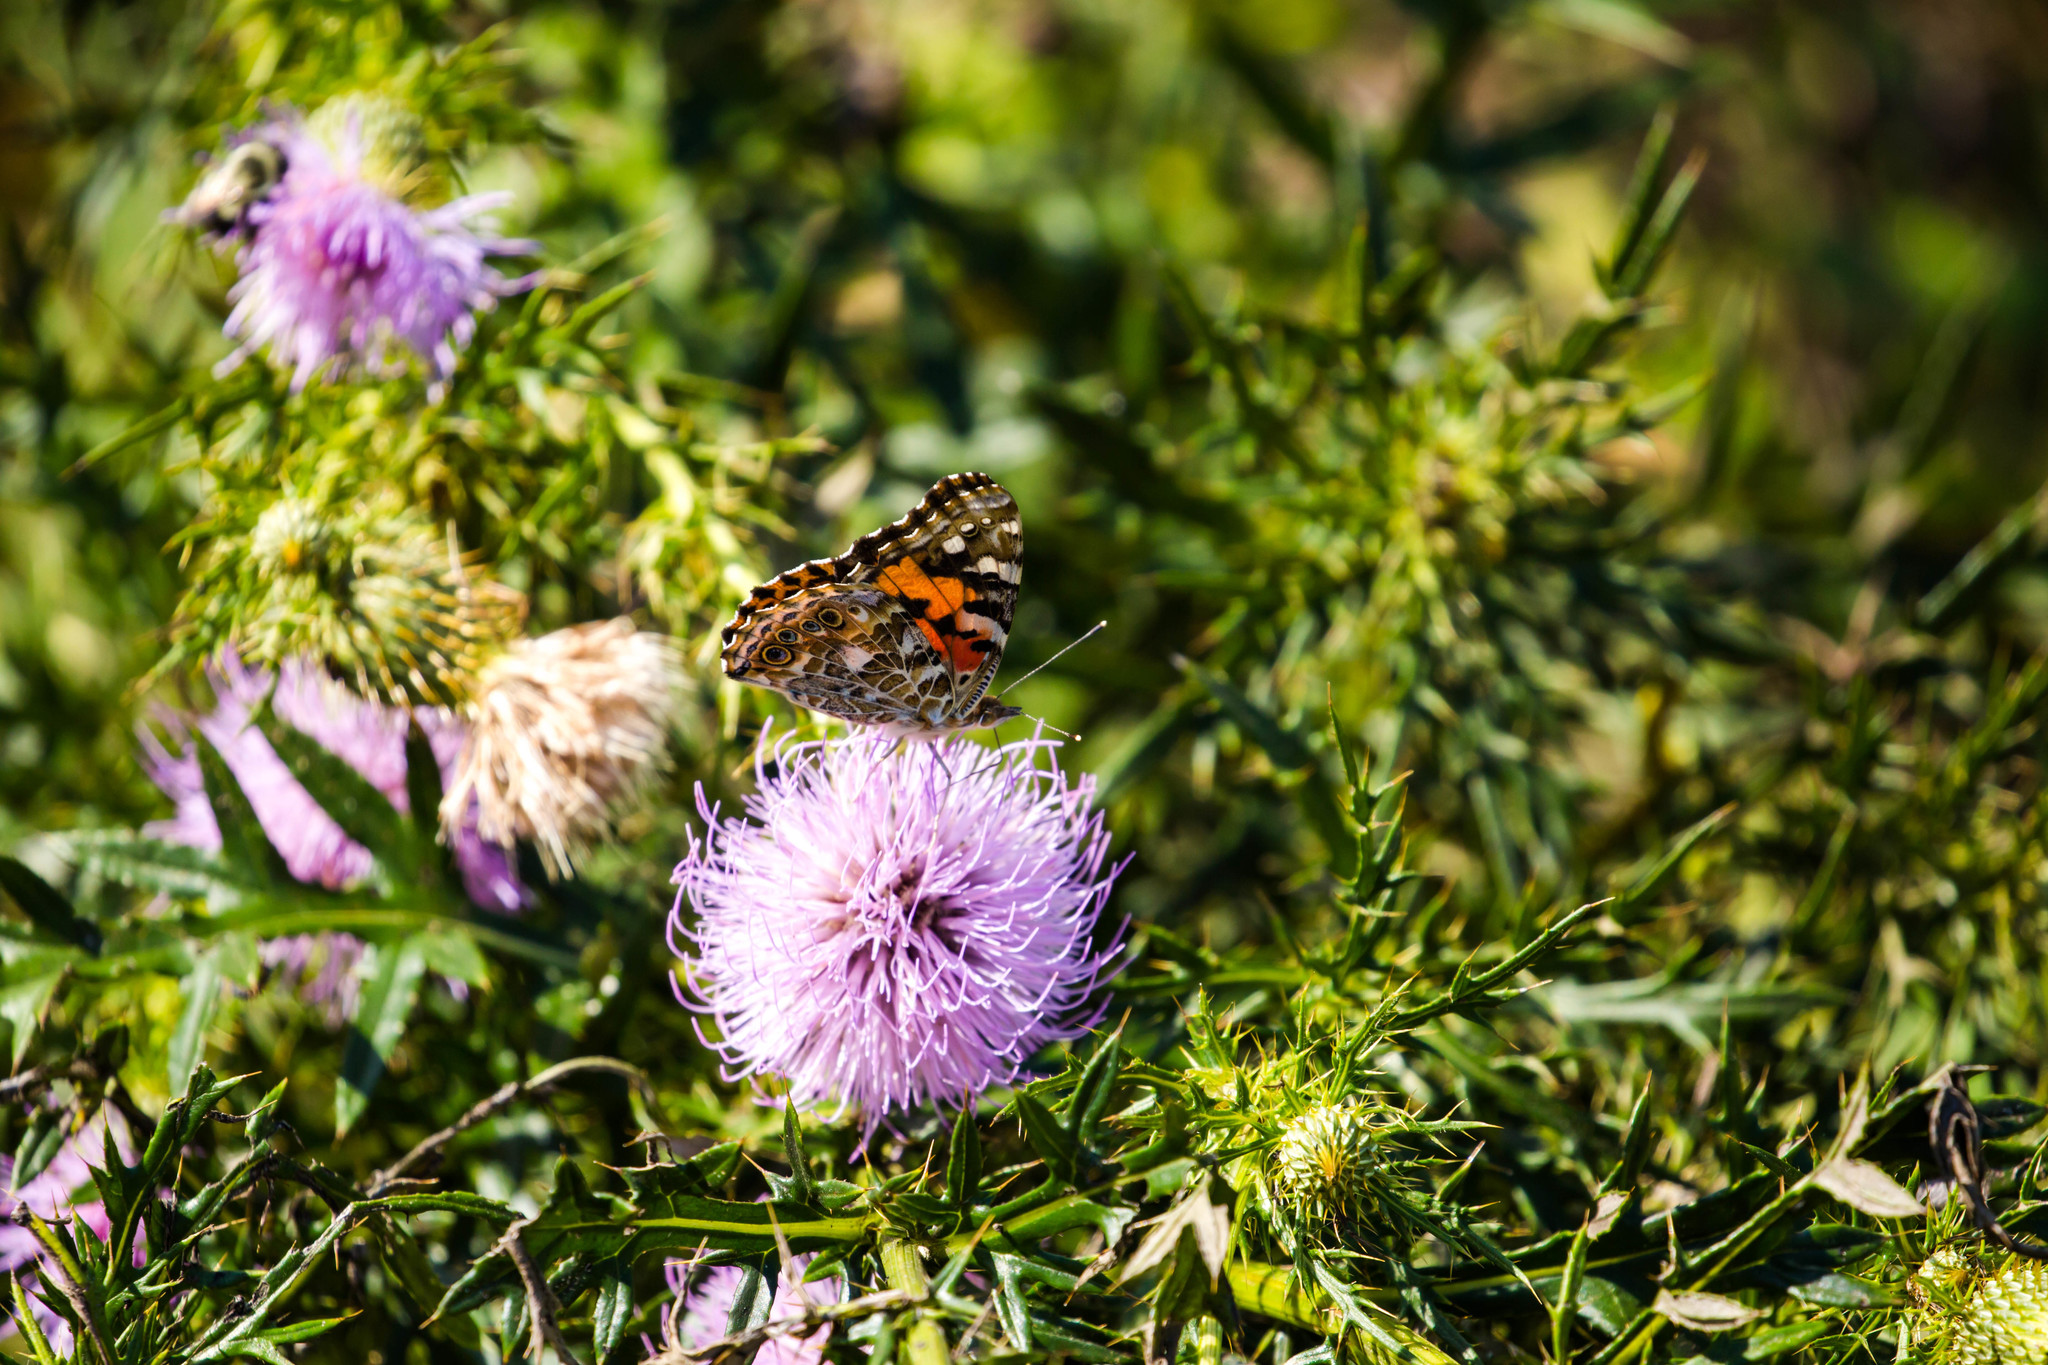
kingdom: Animalia
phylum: Arthropoda
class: Insecta
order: Lepidoptera
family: Nymphalidae
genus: Vanessa
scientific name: Vanessa cardui
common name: Painted lady
